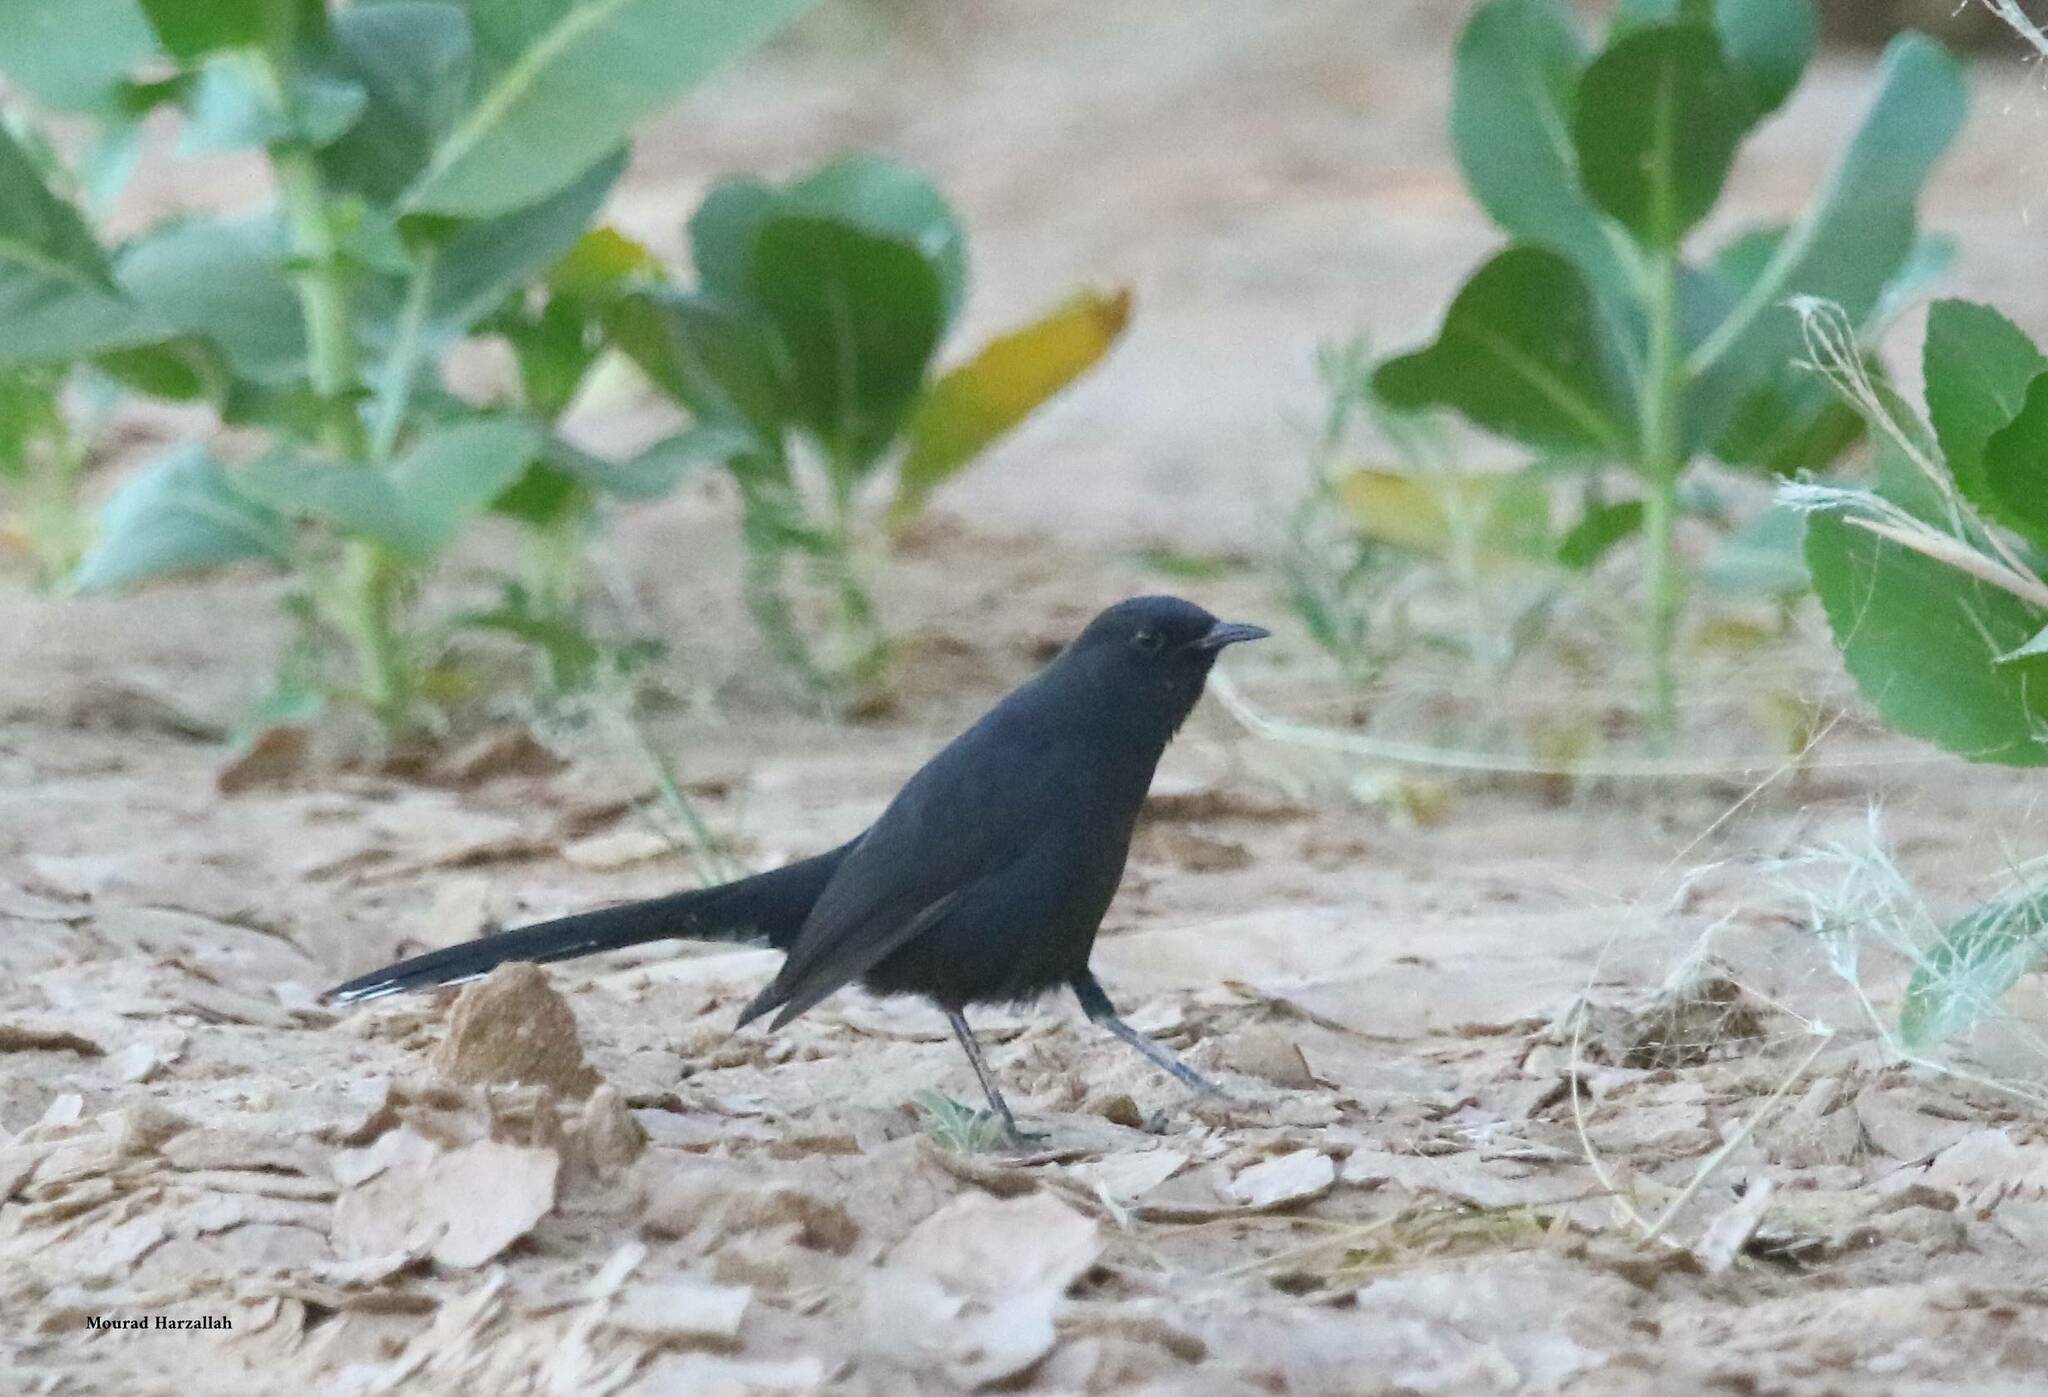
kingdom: Animalia
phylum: Chordata
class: Aves
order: Passeriformes
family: Muscicapidae
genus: Cercotrichas
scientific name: Cercotrichas podobe
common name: Black scrub robin
